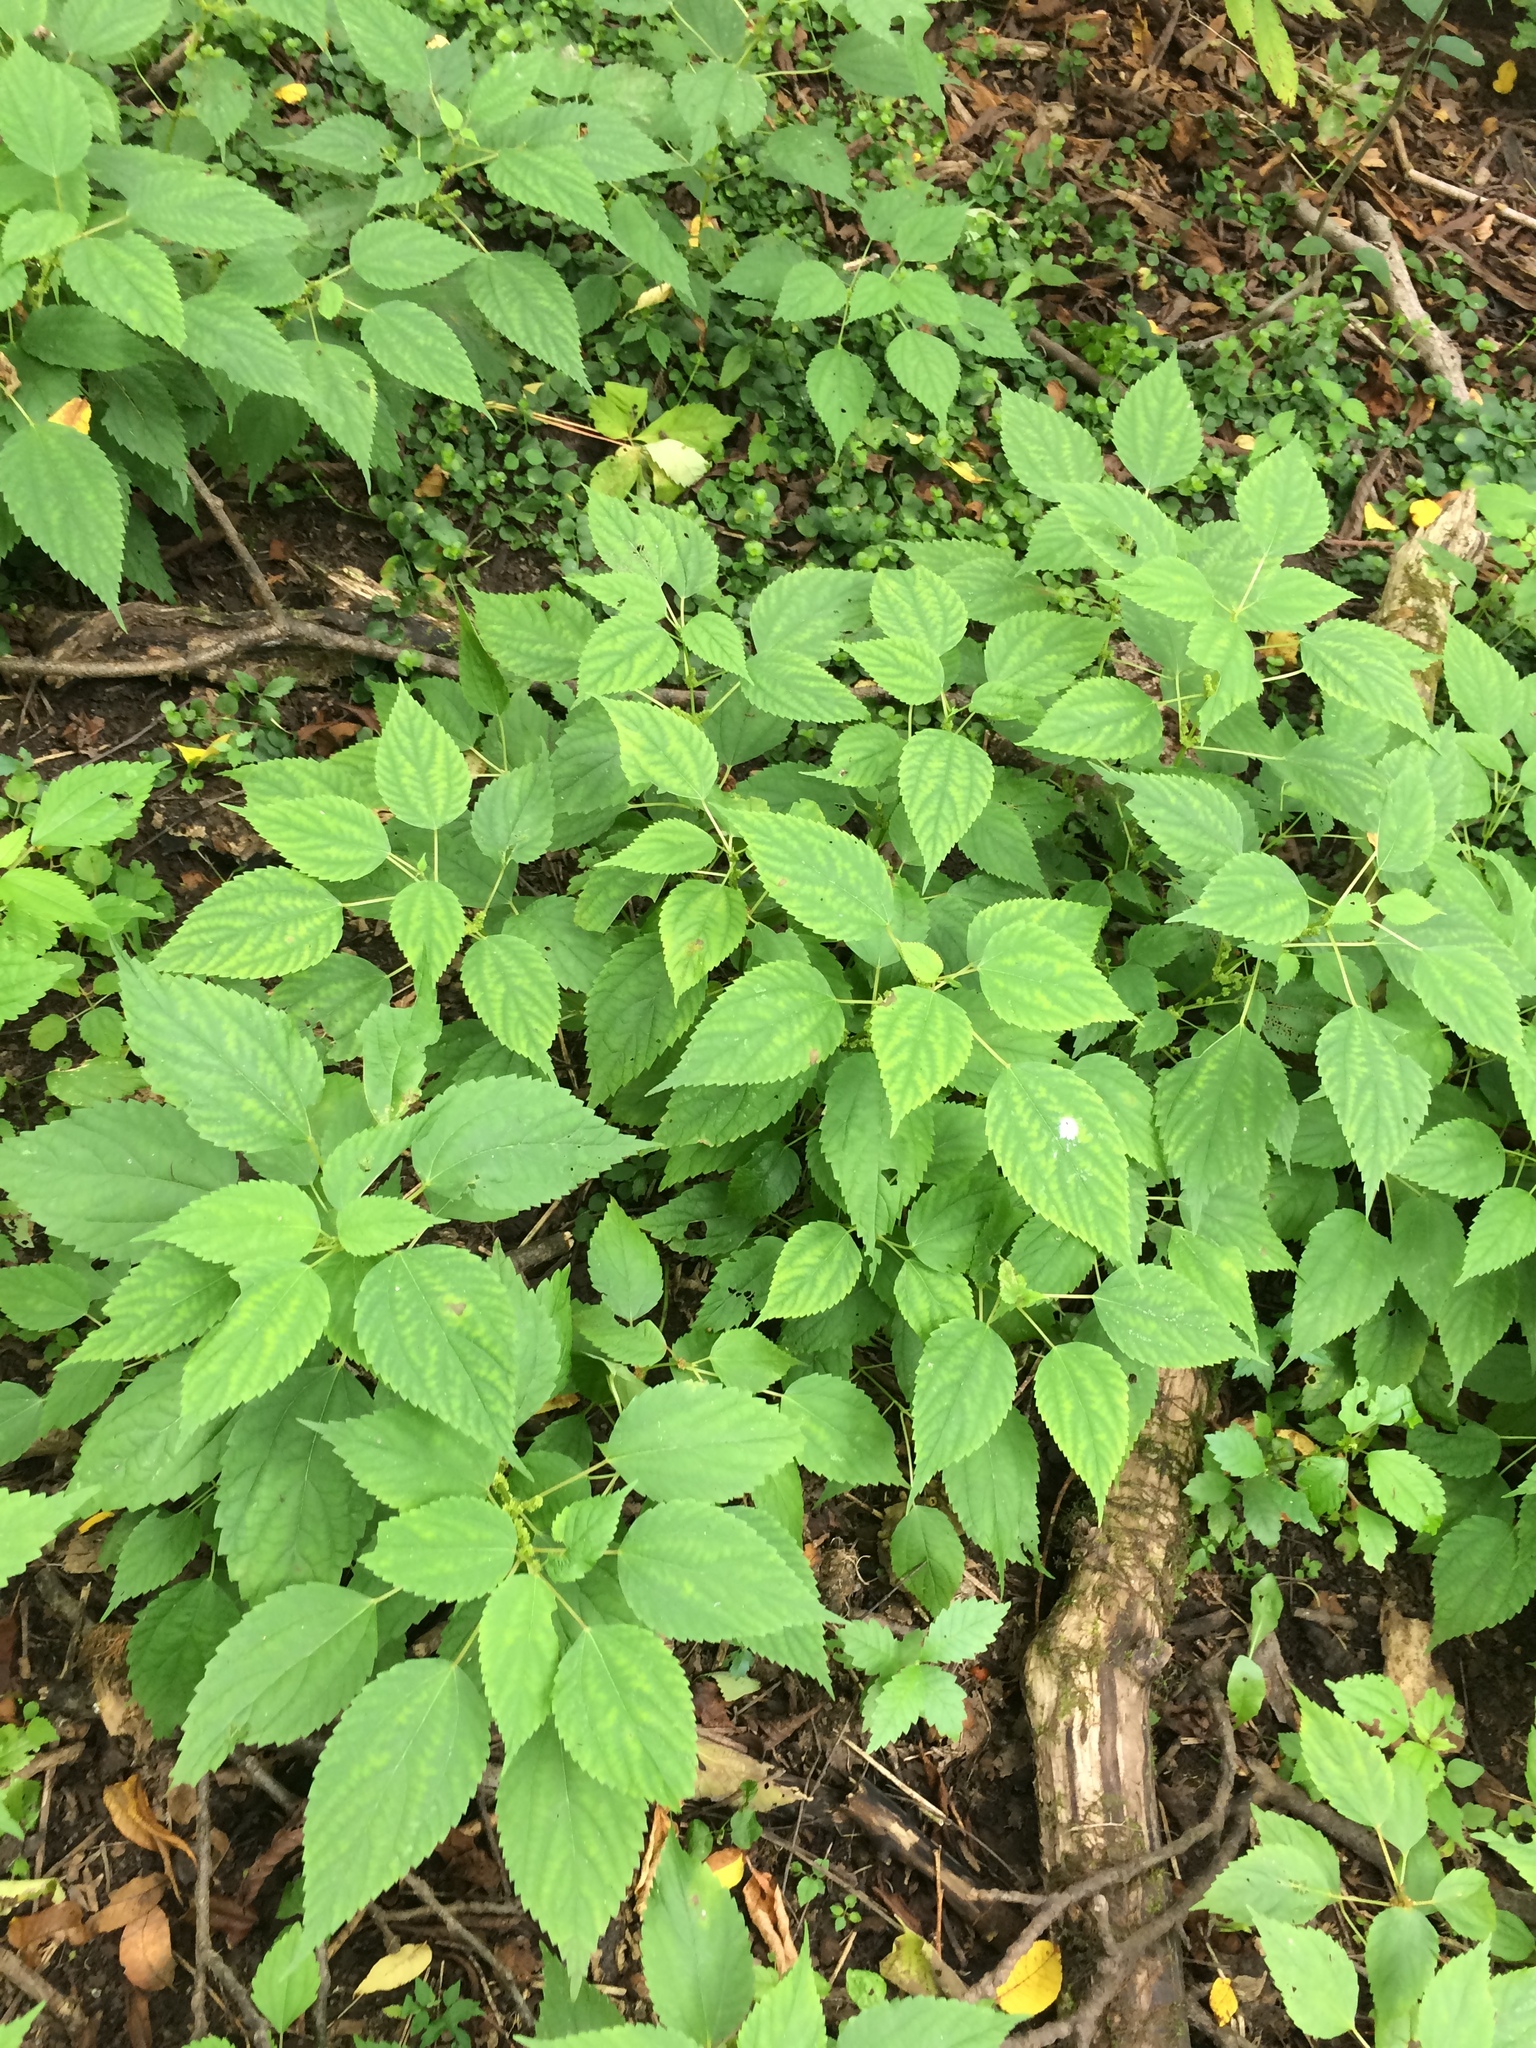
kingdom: Plantae
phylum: Tracheophyta
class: Magnoliopsida
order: Rosales
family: Urticaceae
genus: Boehmeria
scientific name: Boehmeria cylindrica
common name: Bog-hemp
